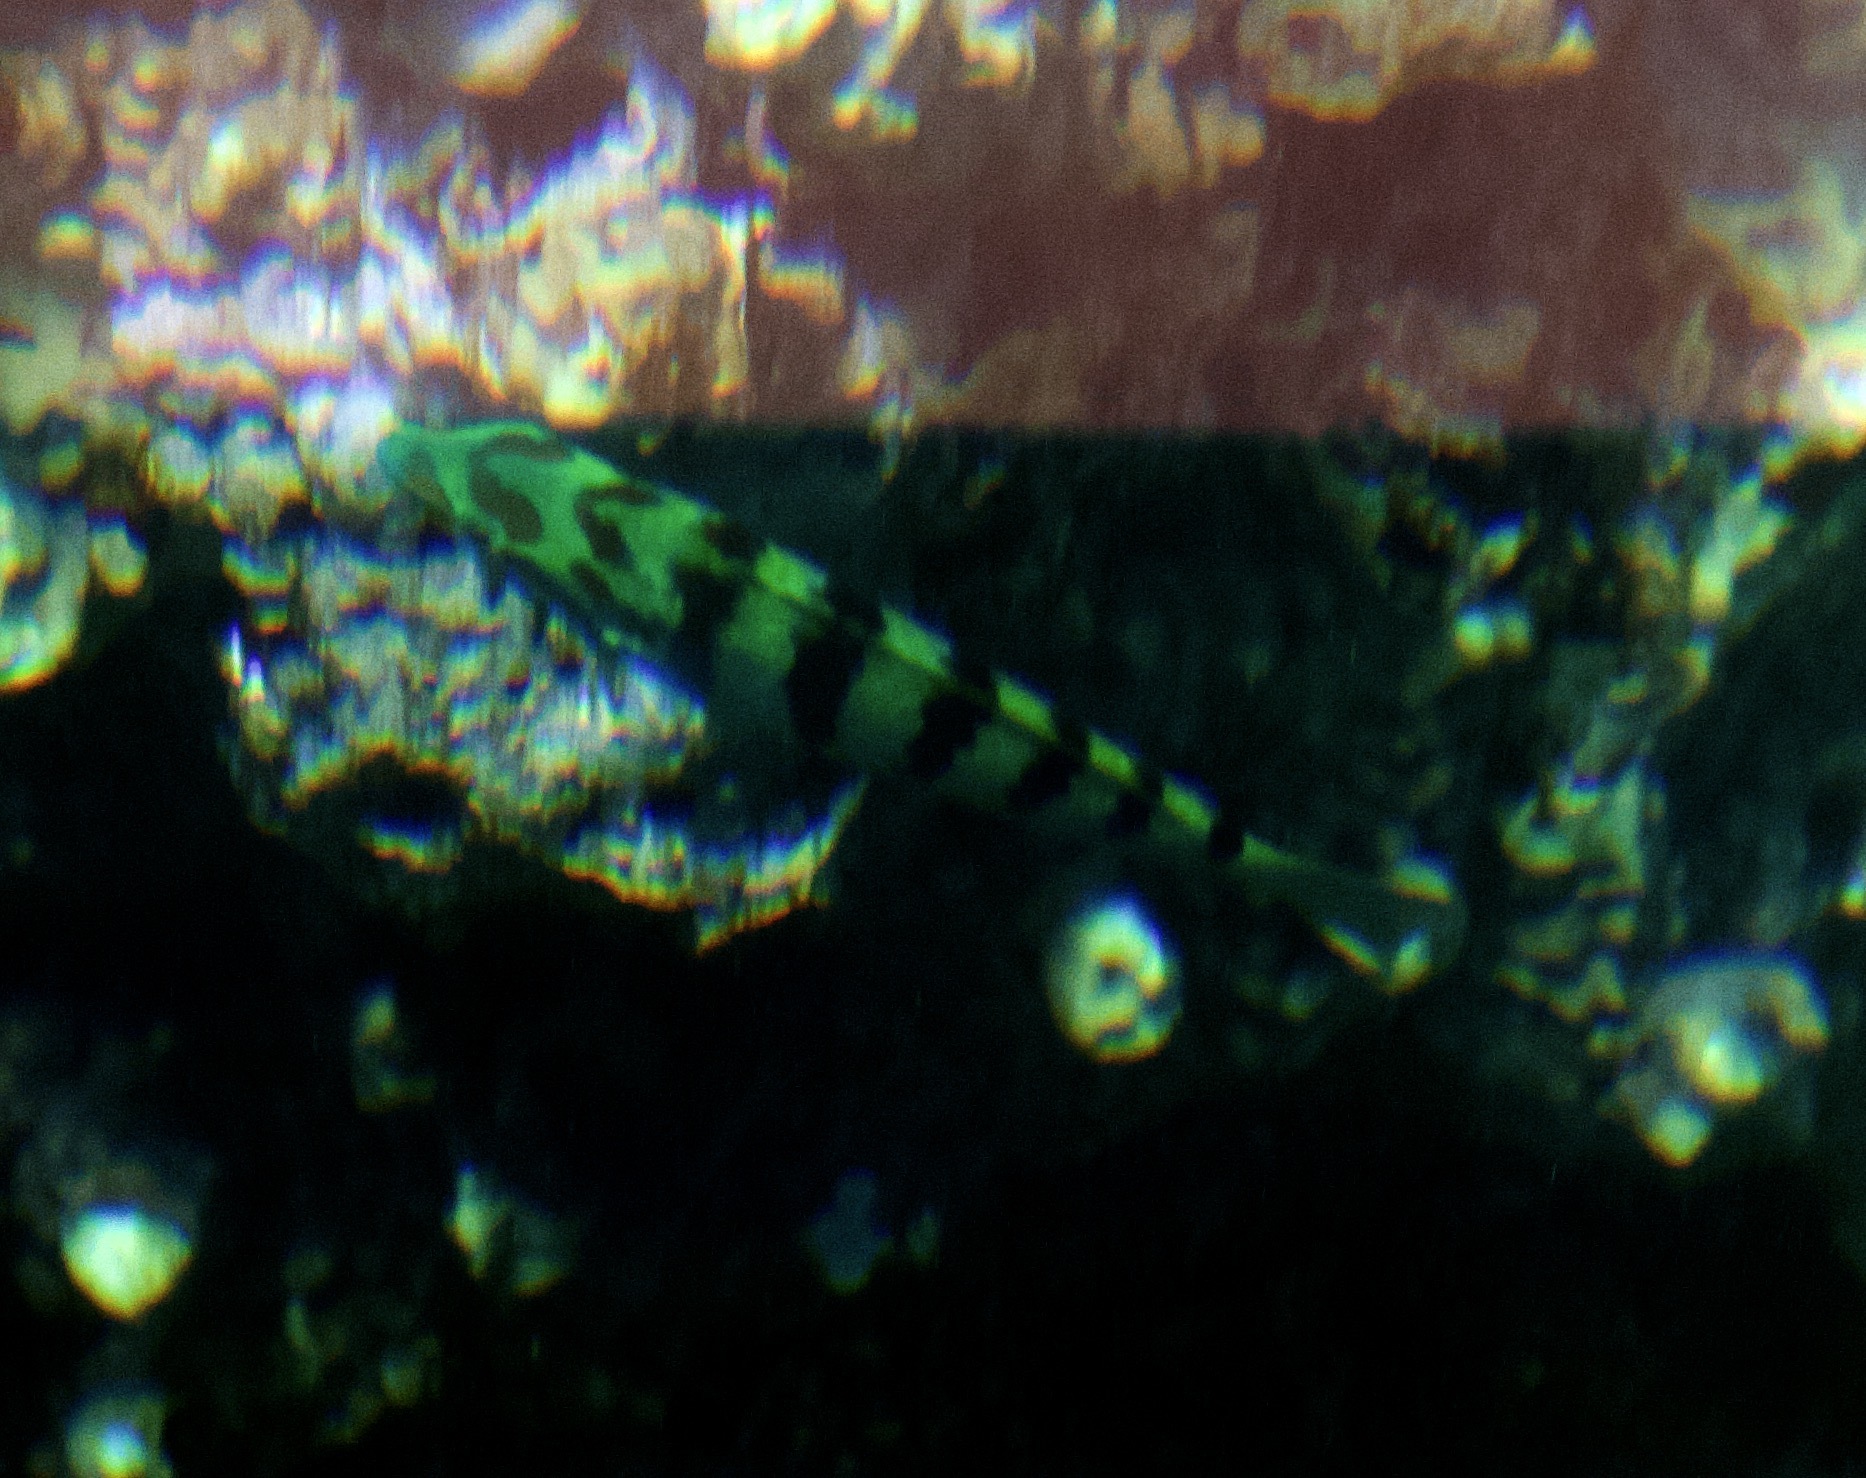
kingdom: Animalia
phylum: Chordata
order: Perciformes
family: Labridae
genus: Thalassoma
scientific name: Thalassoma hardwicke
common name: Sixbar wrasse
